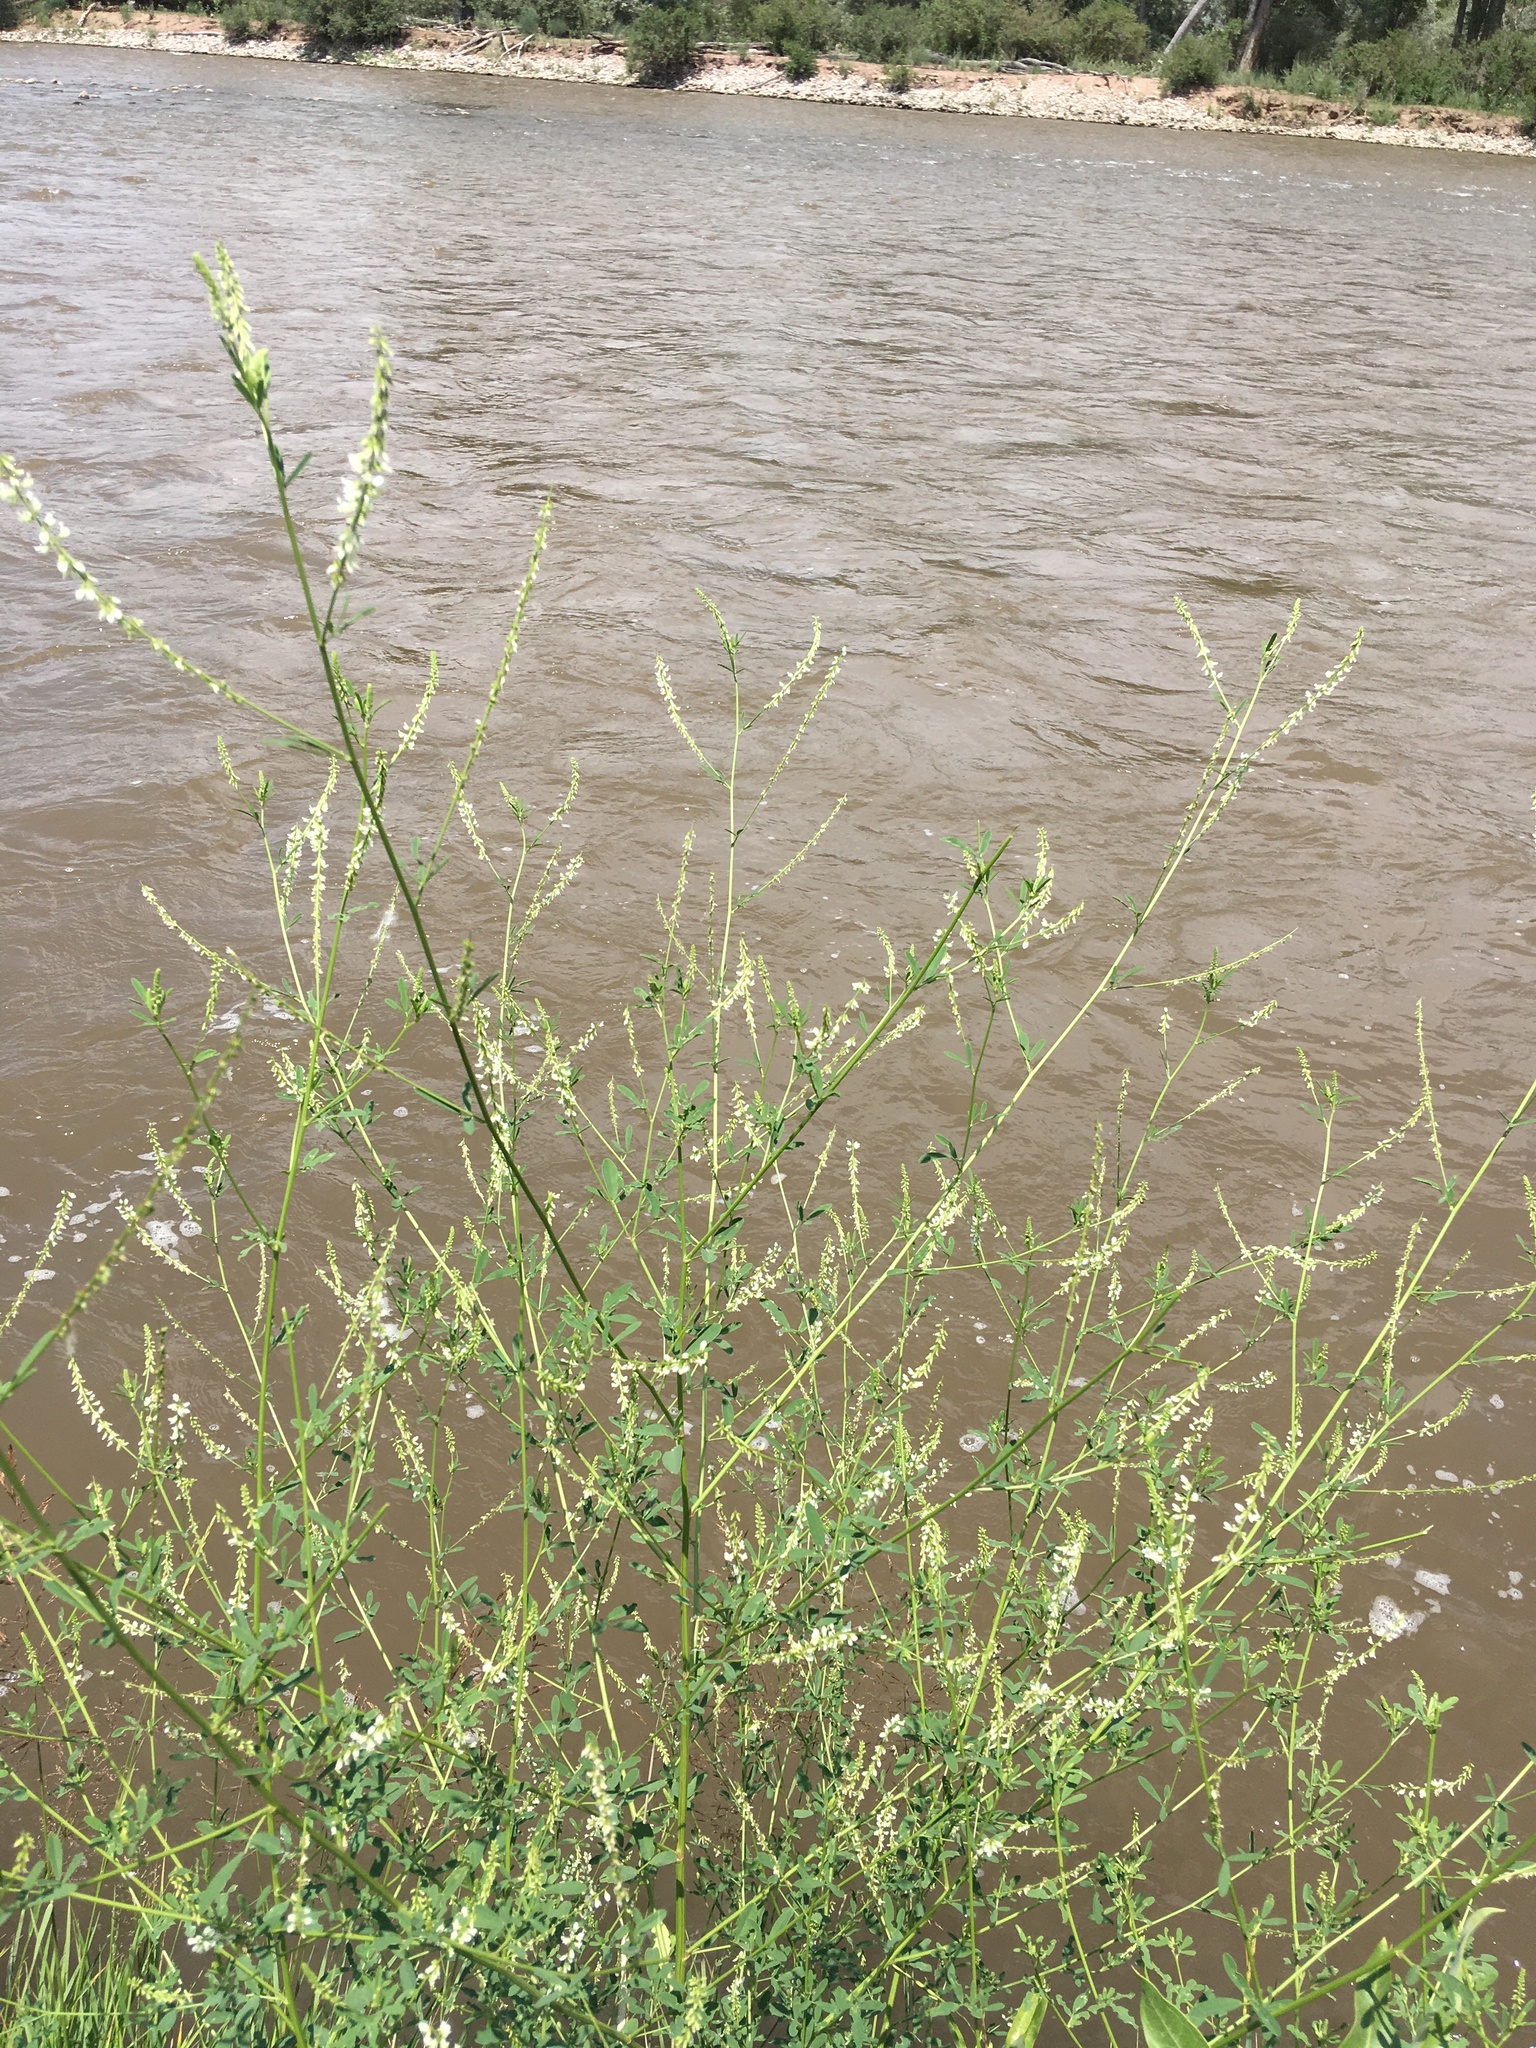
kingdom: Plantae
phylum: Tracheophyta
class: Magnoliopsida
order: Fabales
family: Fabaceae
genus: Melilotus
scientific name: Melilotus albus
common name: White melilot
